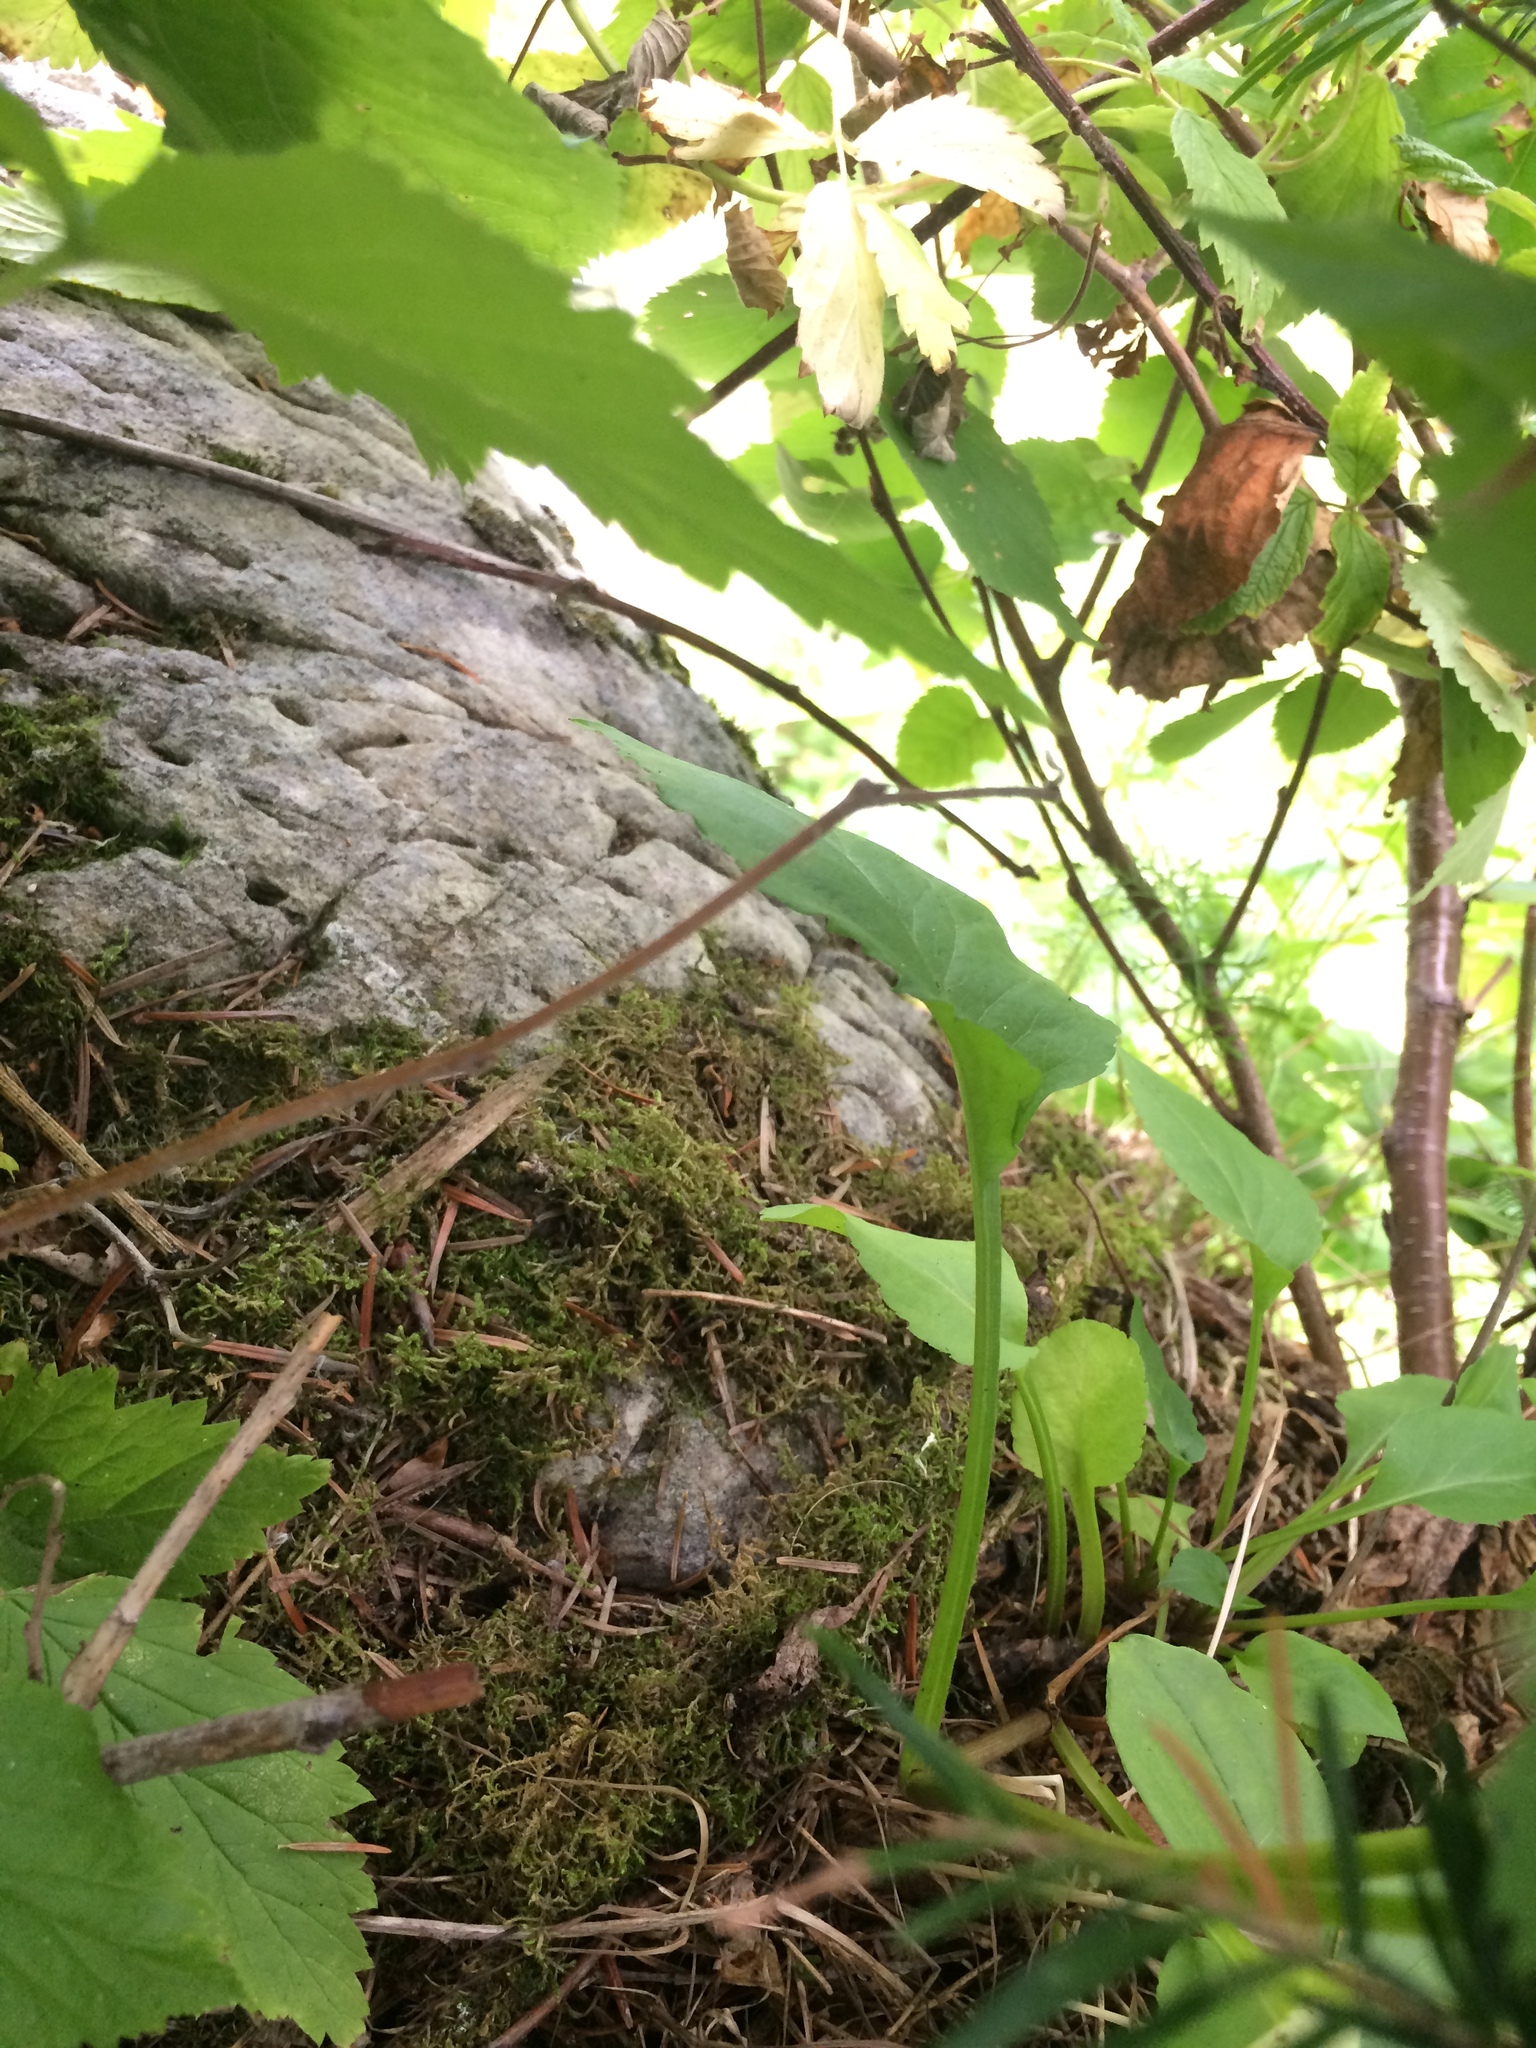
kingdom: Plantae
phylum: Tracheophyta
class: Magnoliopsida
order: Asterales
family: Asteraceae
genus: Solidago
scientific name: Solidago macrophylla
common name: Large-leaved goldenrod
